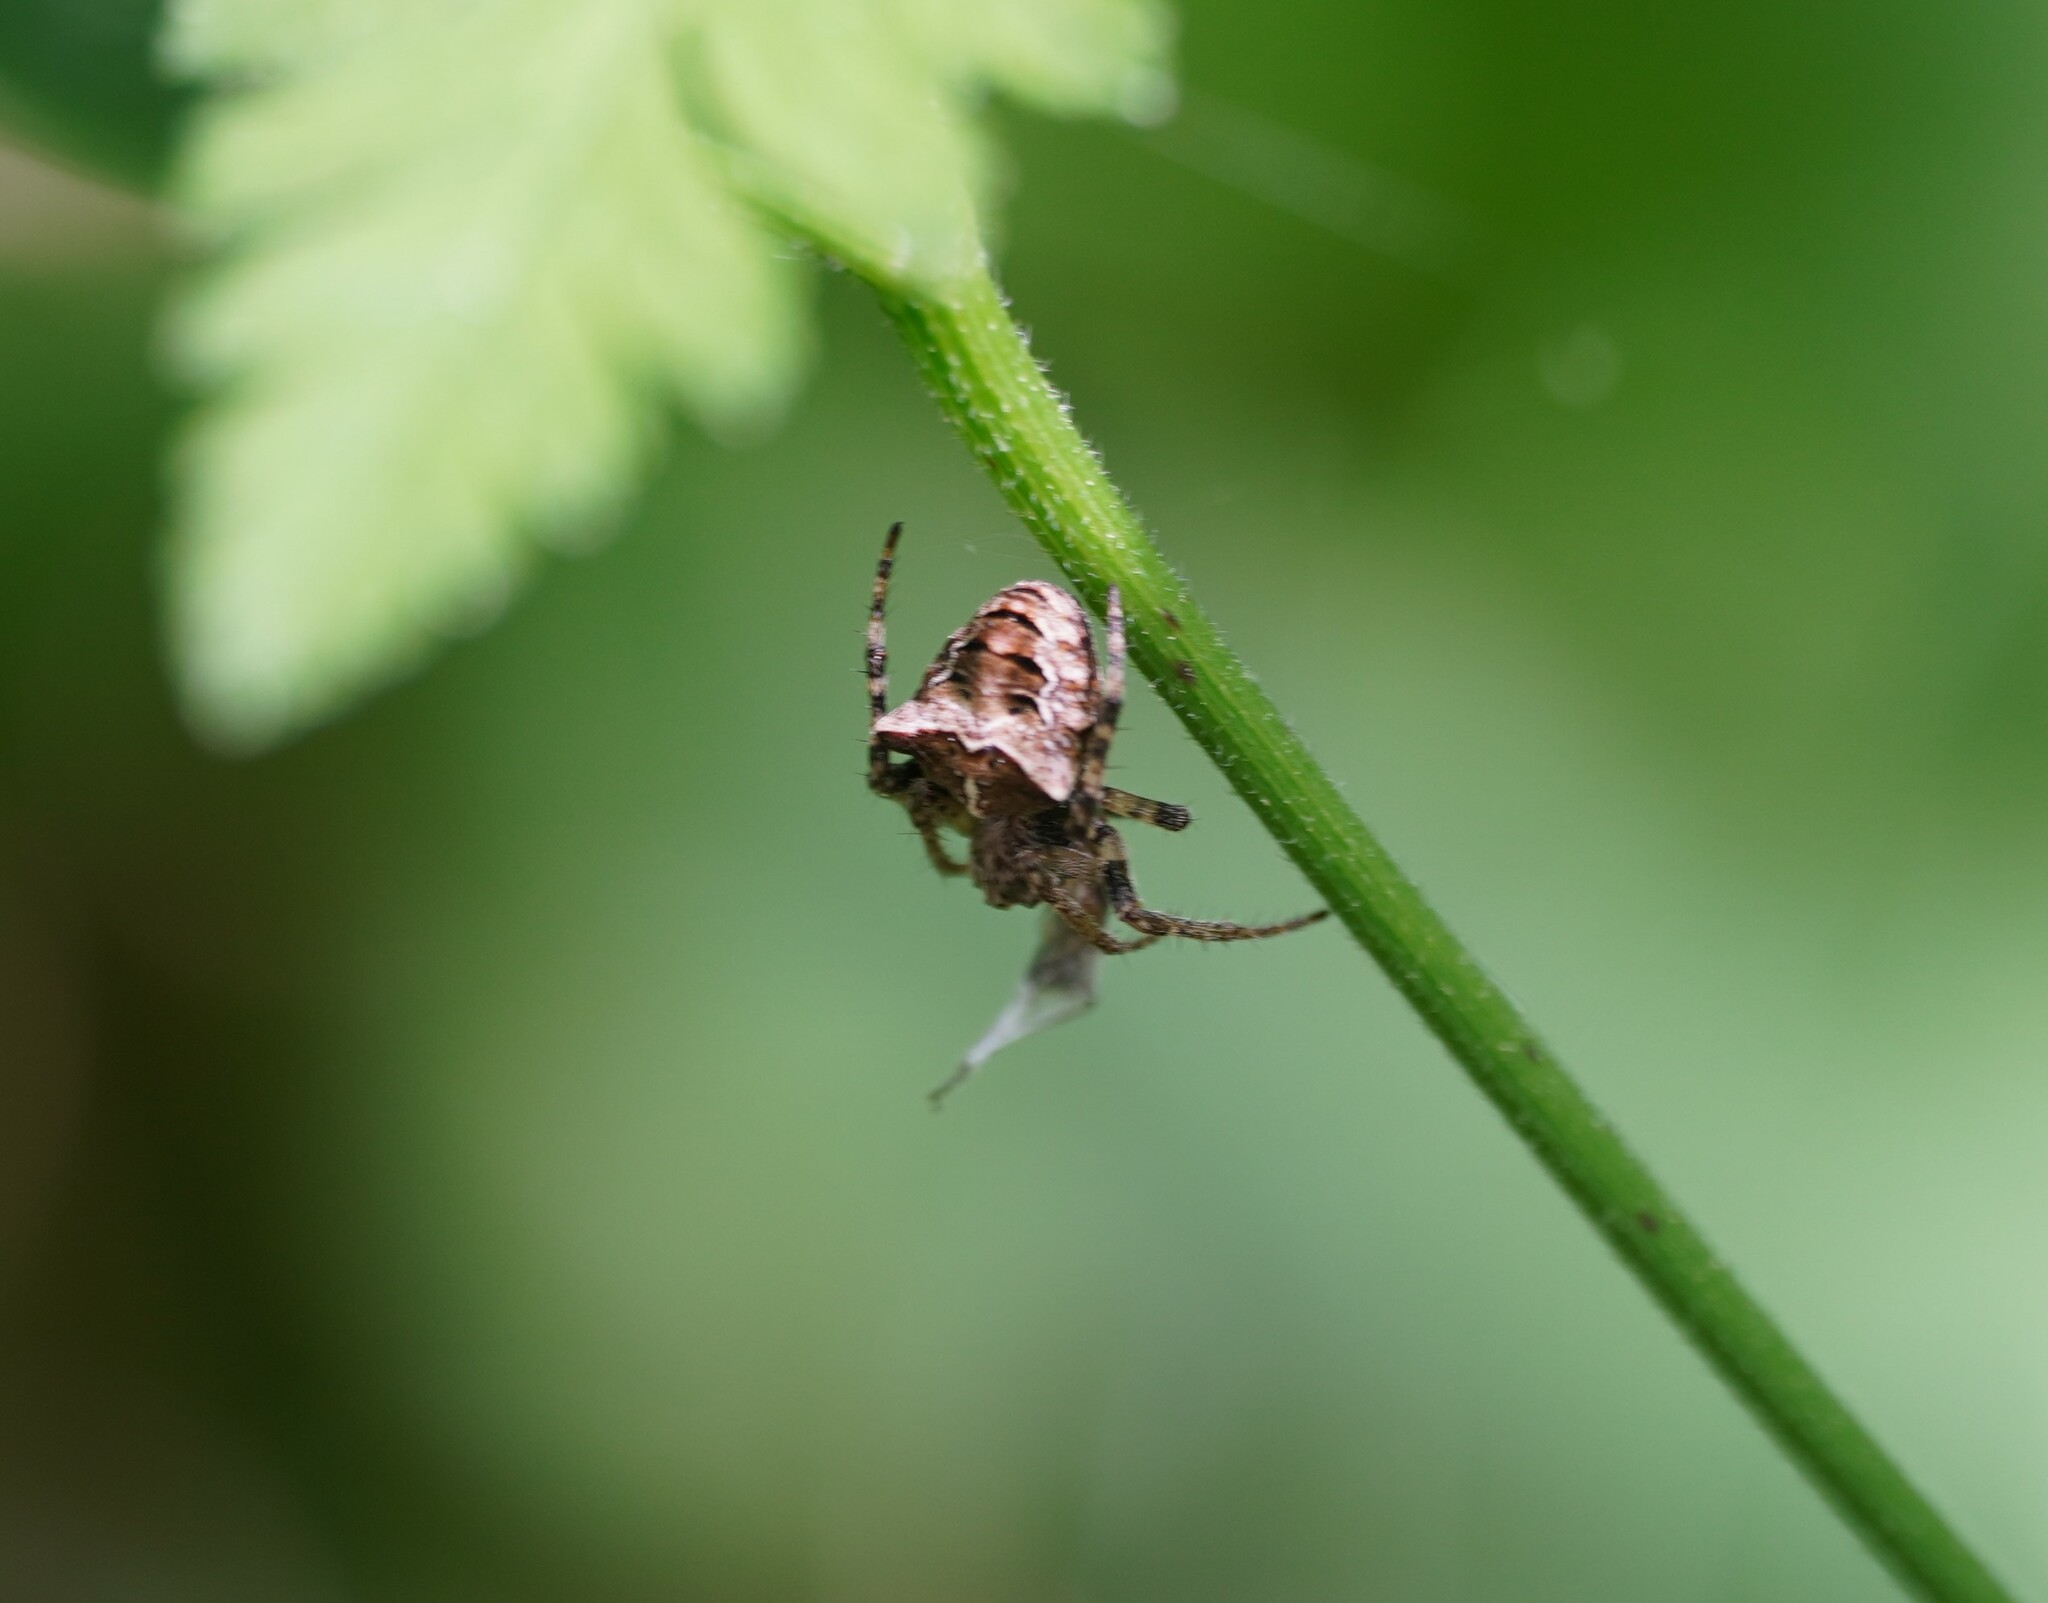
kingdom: Animalia
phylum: Arthropoda
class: Arachnida
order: Araneae
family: Araneidae
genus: Gibbaranea
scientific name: Gibbaranea bituberculata
